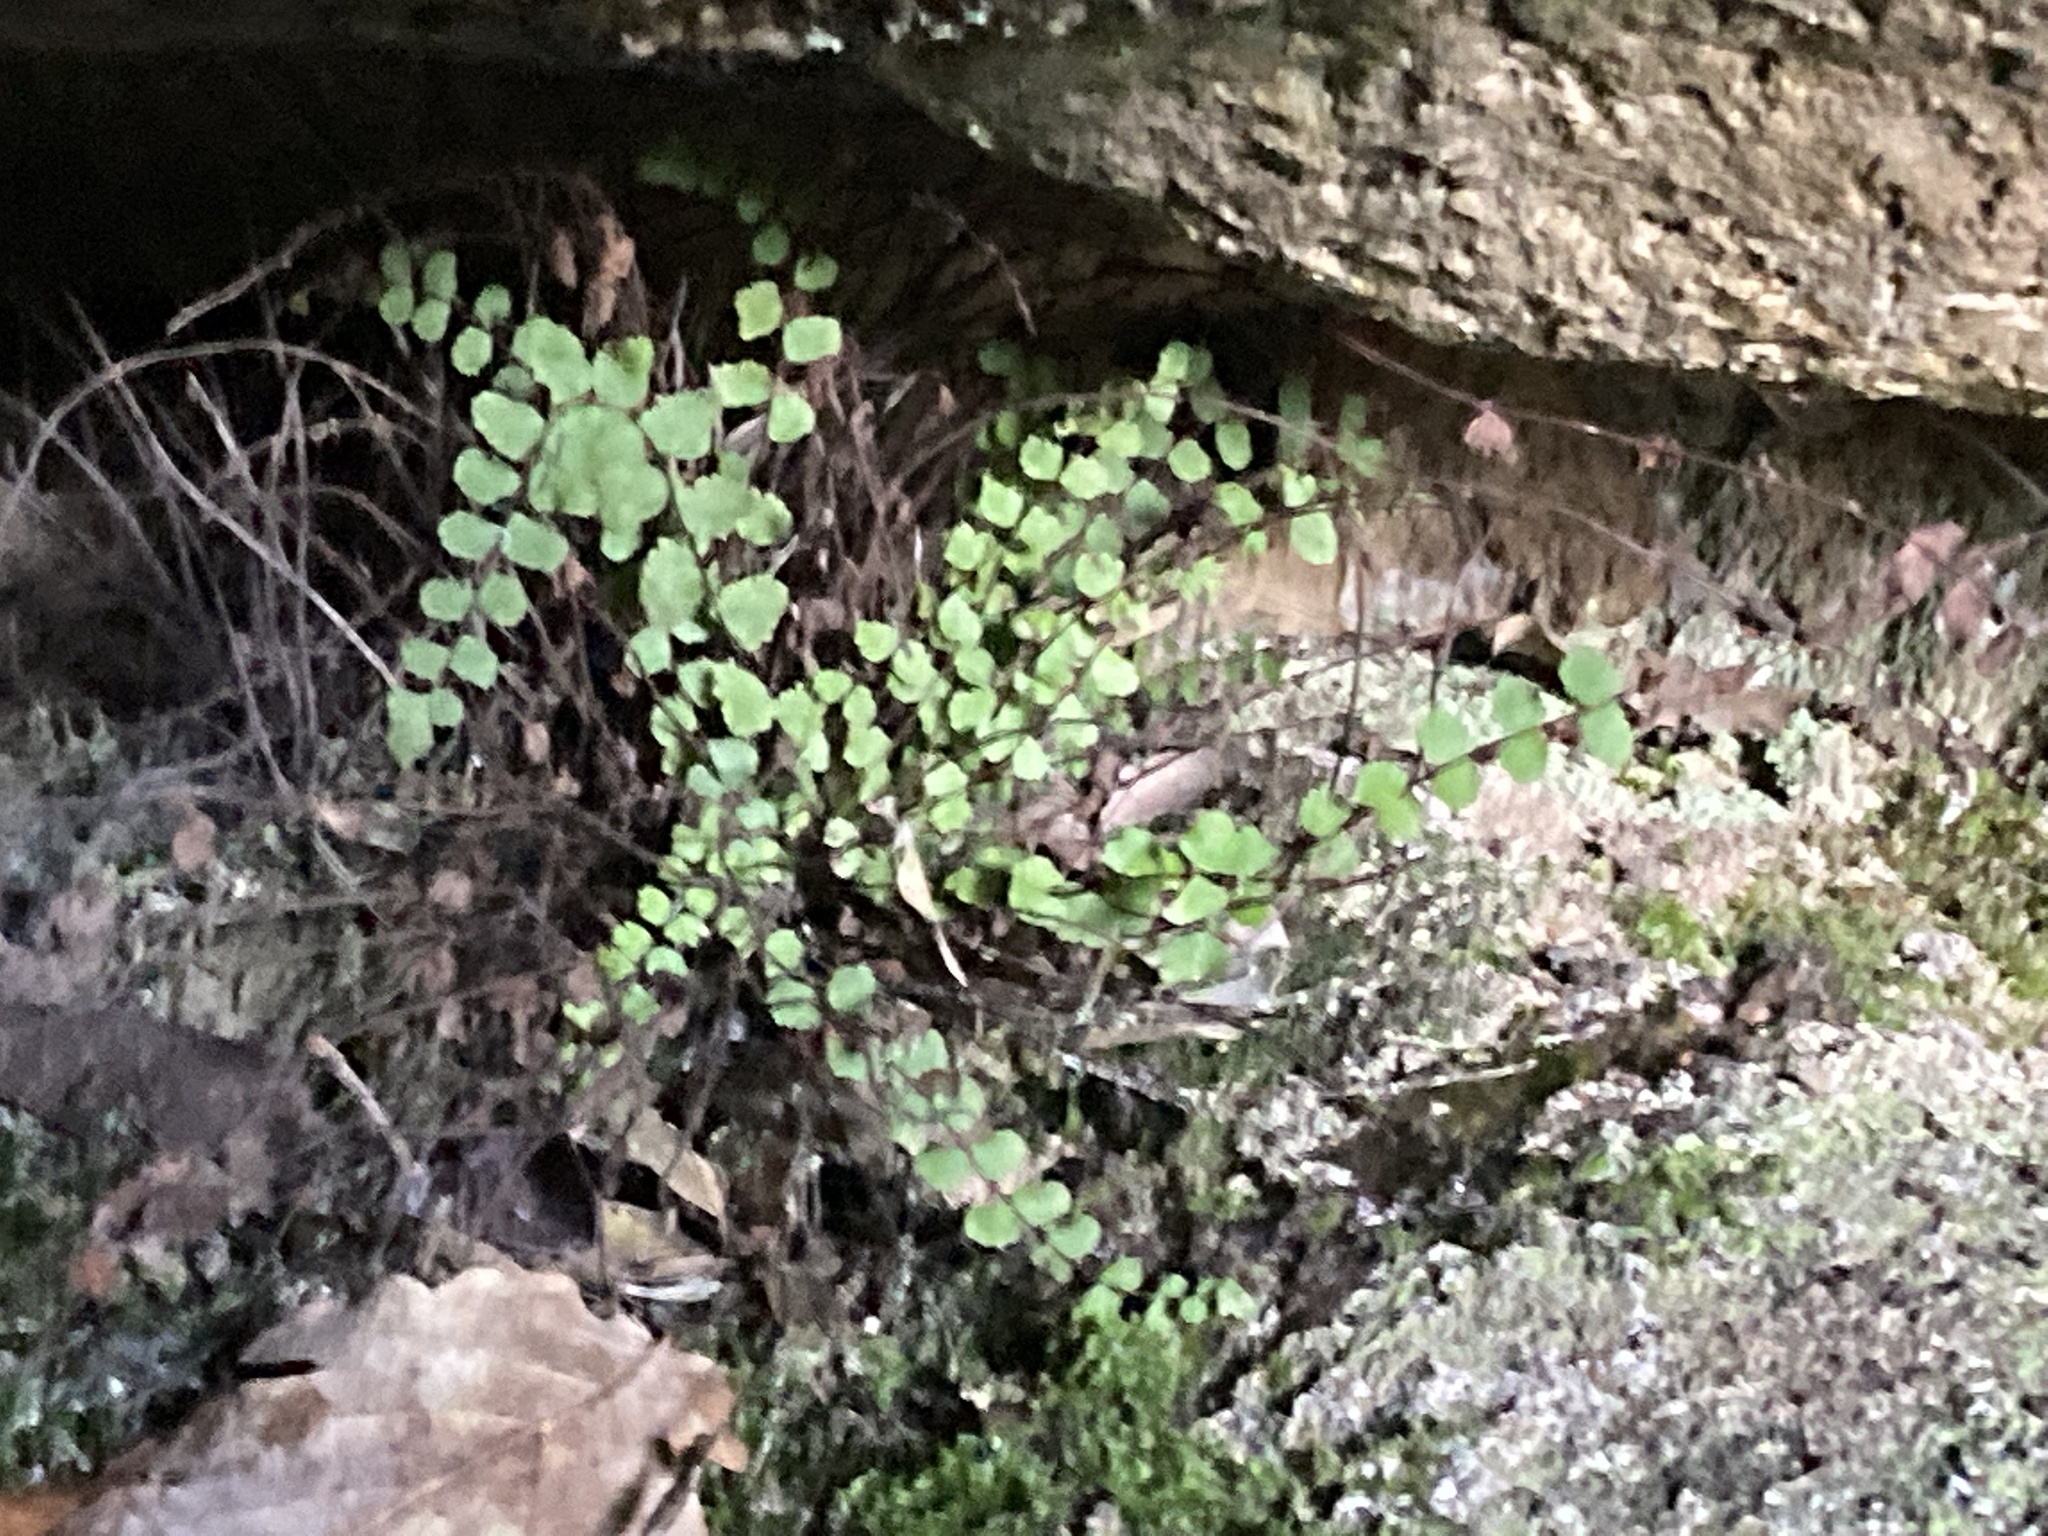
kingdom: Plantae
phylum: Tracheophyta
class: Polypodiopsida
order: Polypodiales
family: Aspleniaceae
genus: Asplenium
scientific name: Asplenium trichomanes
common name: Maidenhair spleenwort
